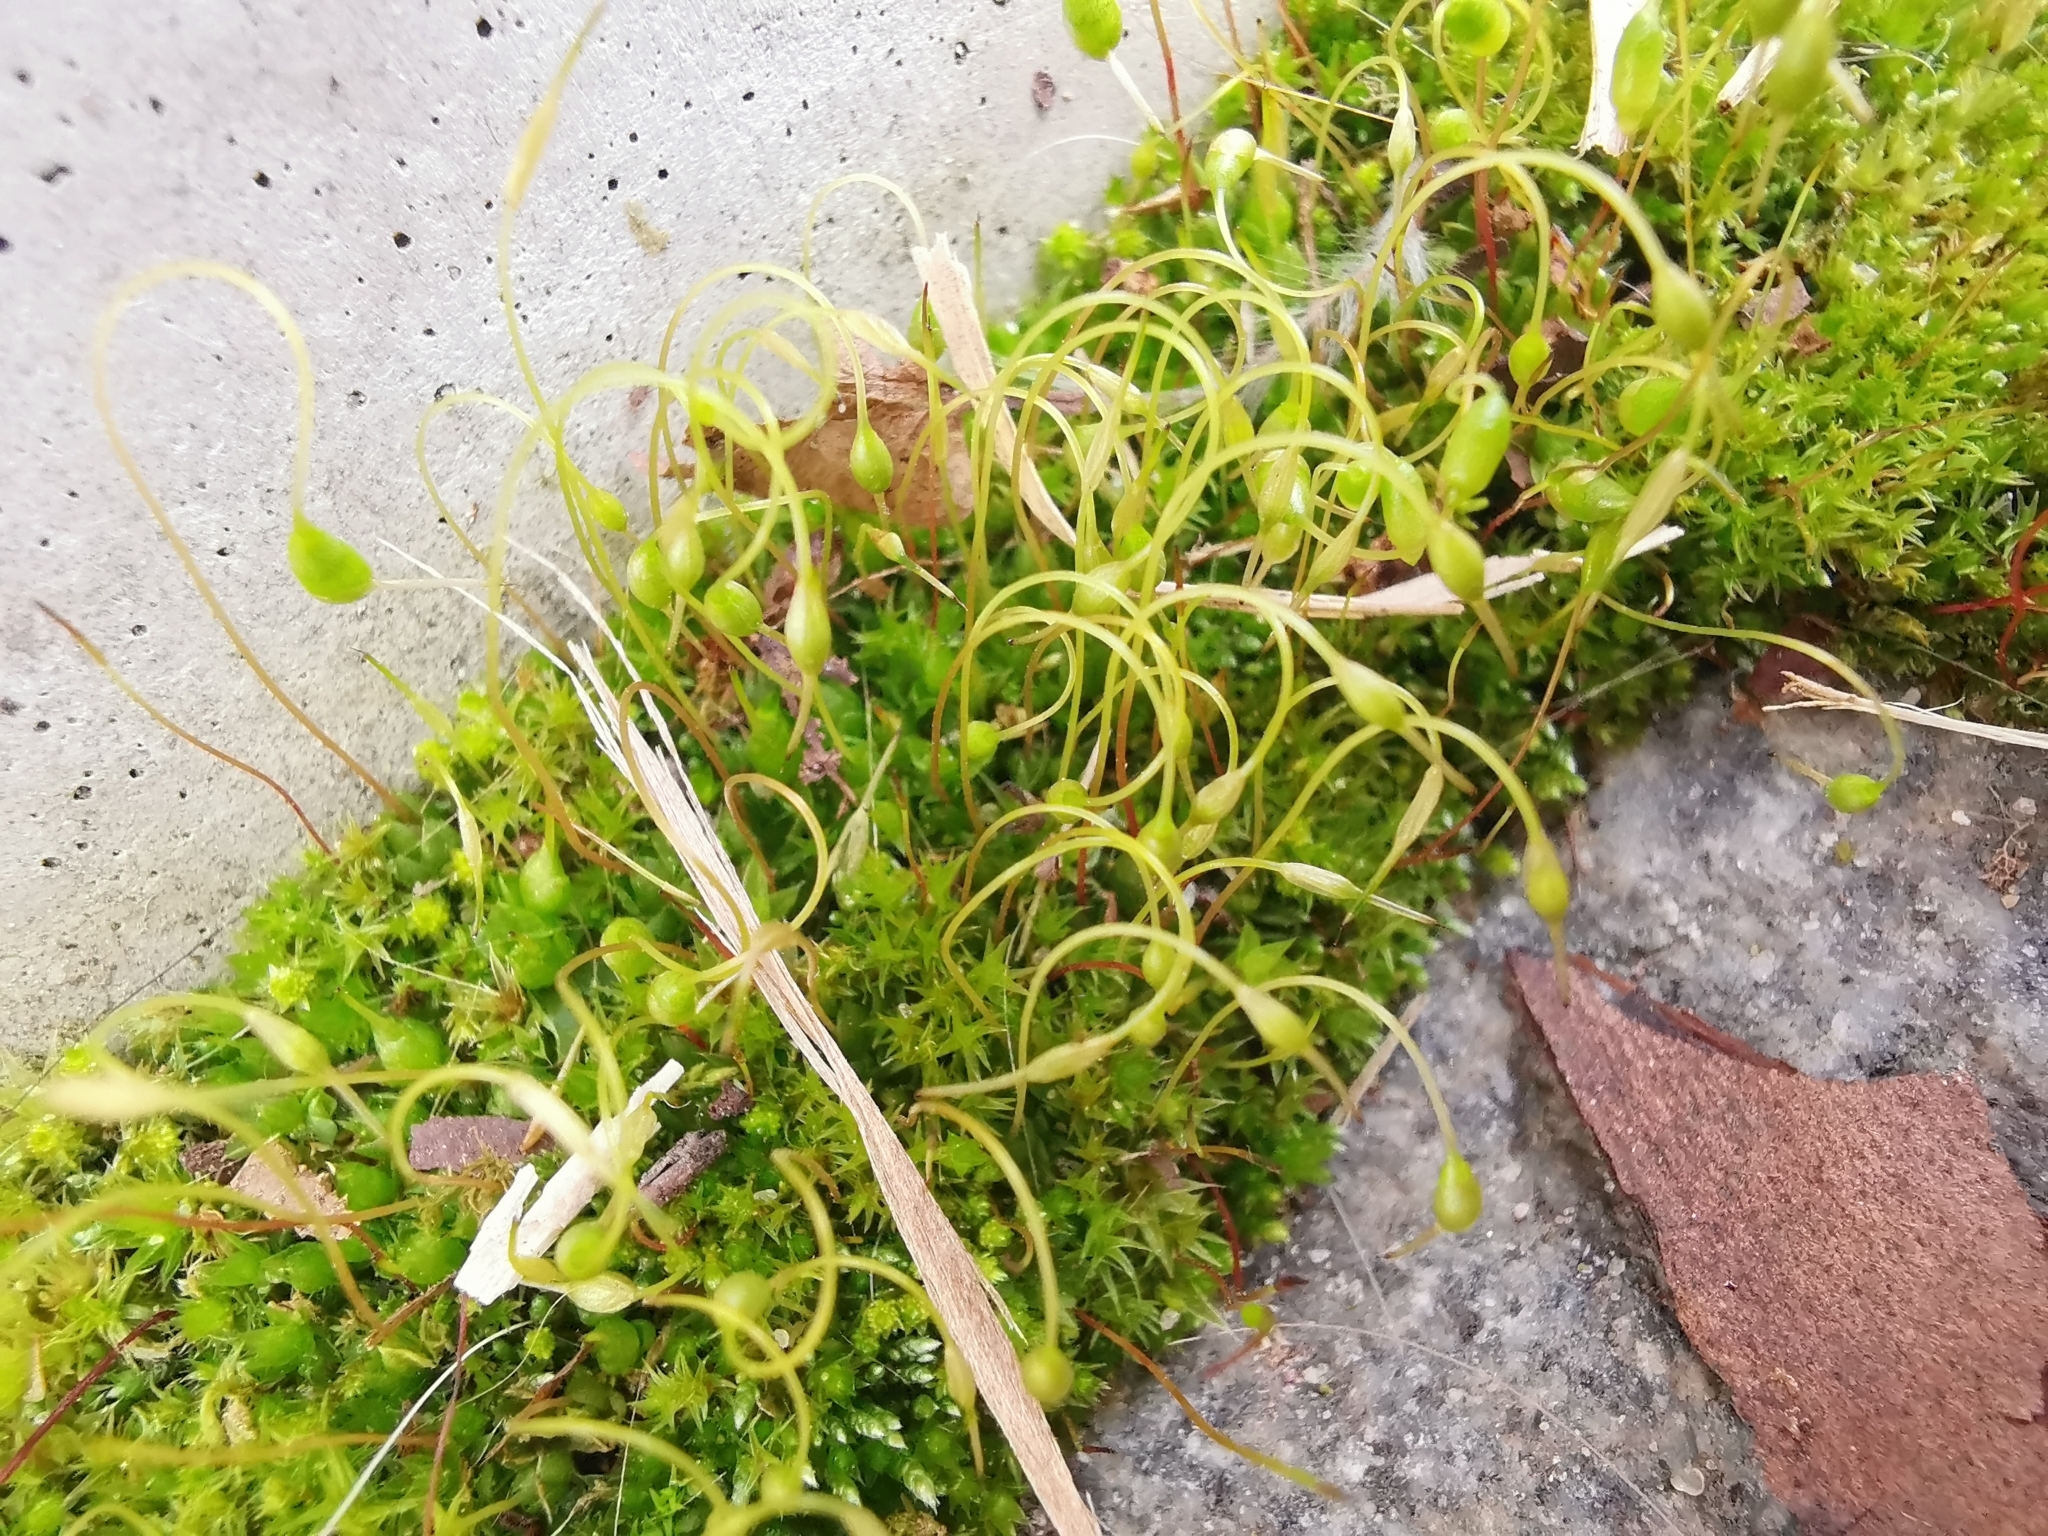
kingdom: Plantae
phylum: Bryophyta
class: Bryopsida
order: Funariales
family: Funariaceae
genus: Funaria
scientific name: Funaria hygrometrica
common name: Common cord moss
